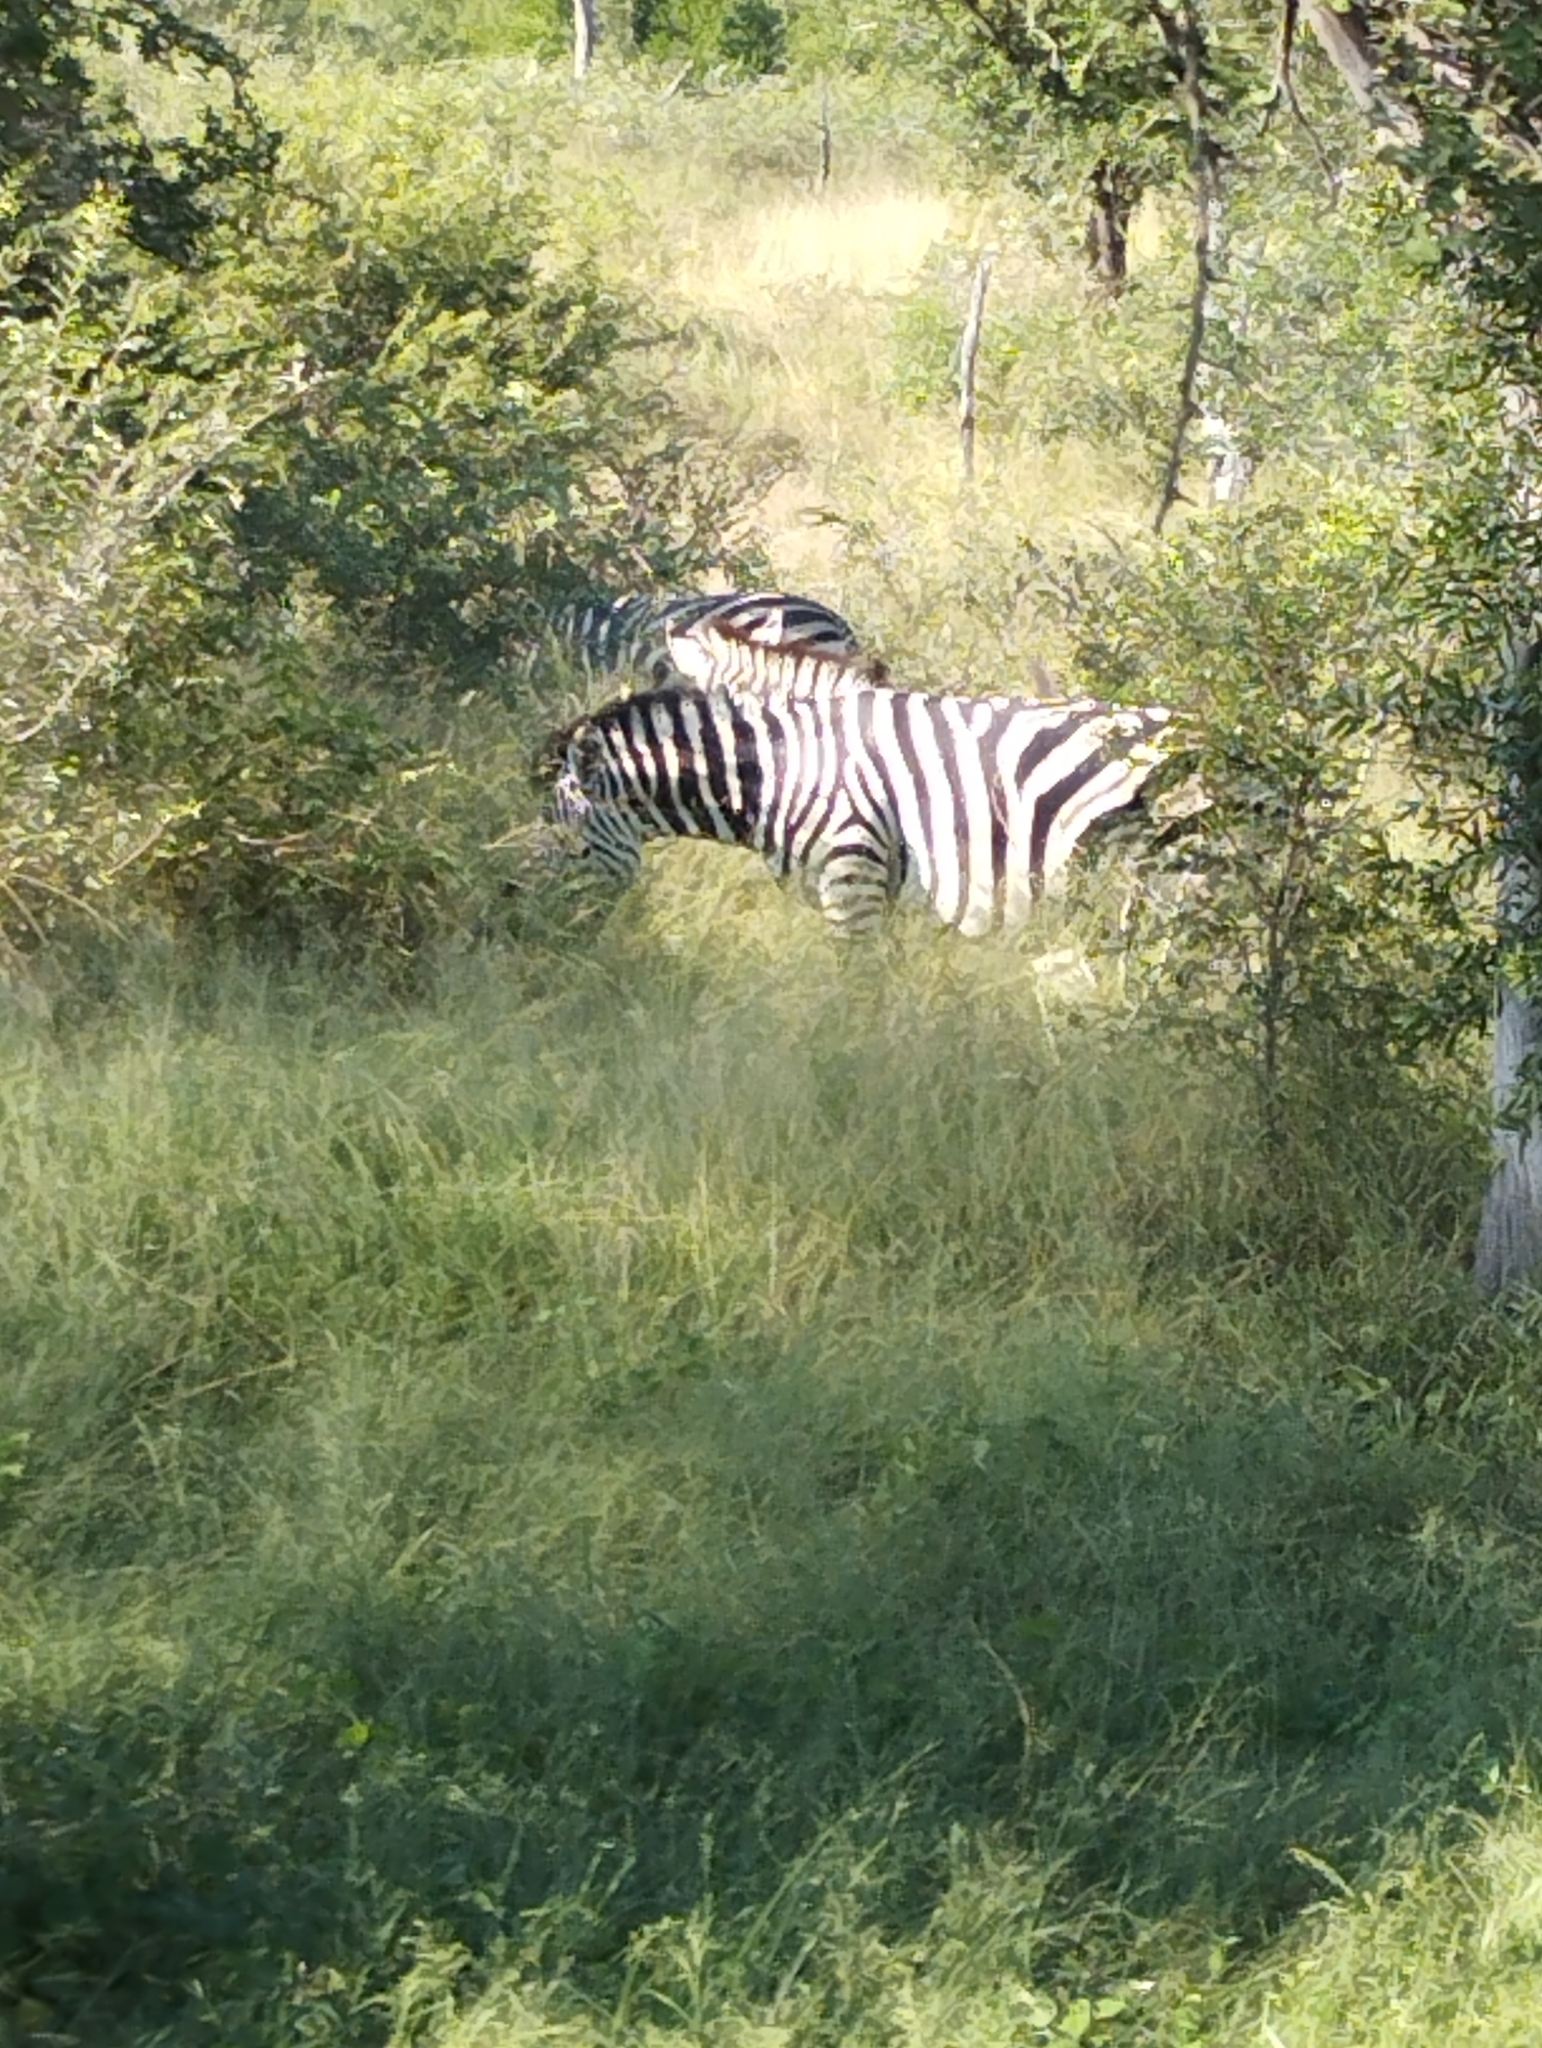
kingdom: Animalia
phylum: Chordata
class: Mammalia
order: Perissodactyla
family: Equidae
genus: Equus
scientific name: Equus quagga
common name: Plains zebra
